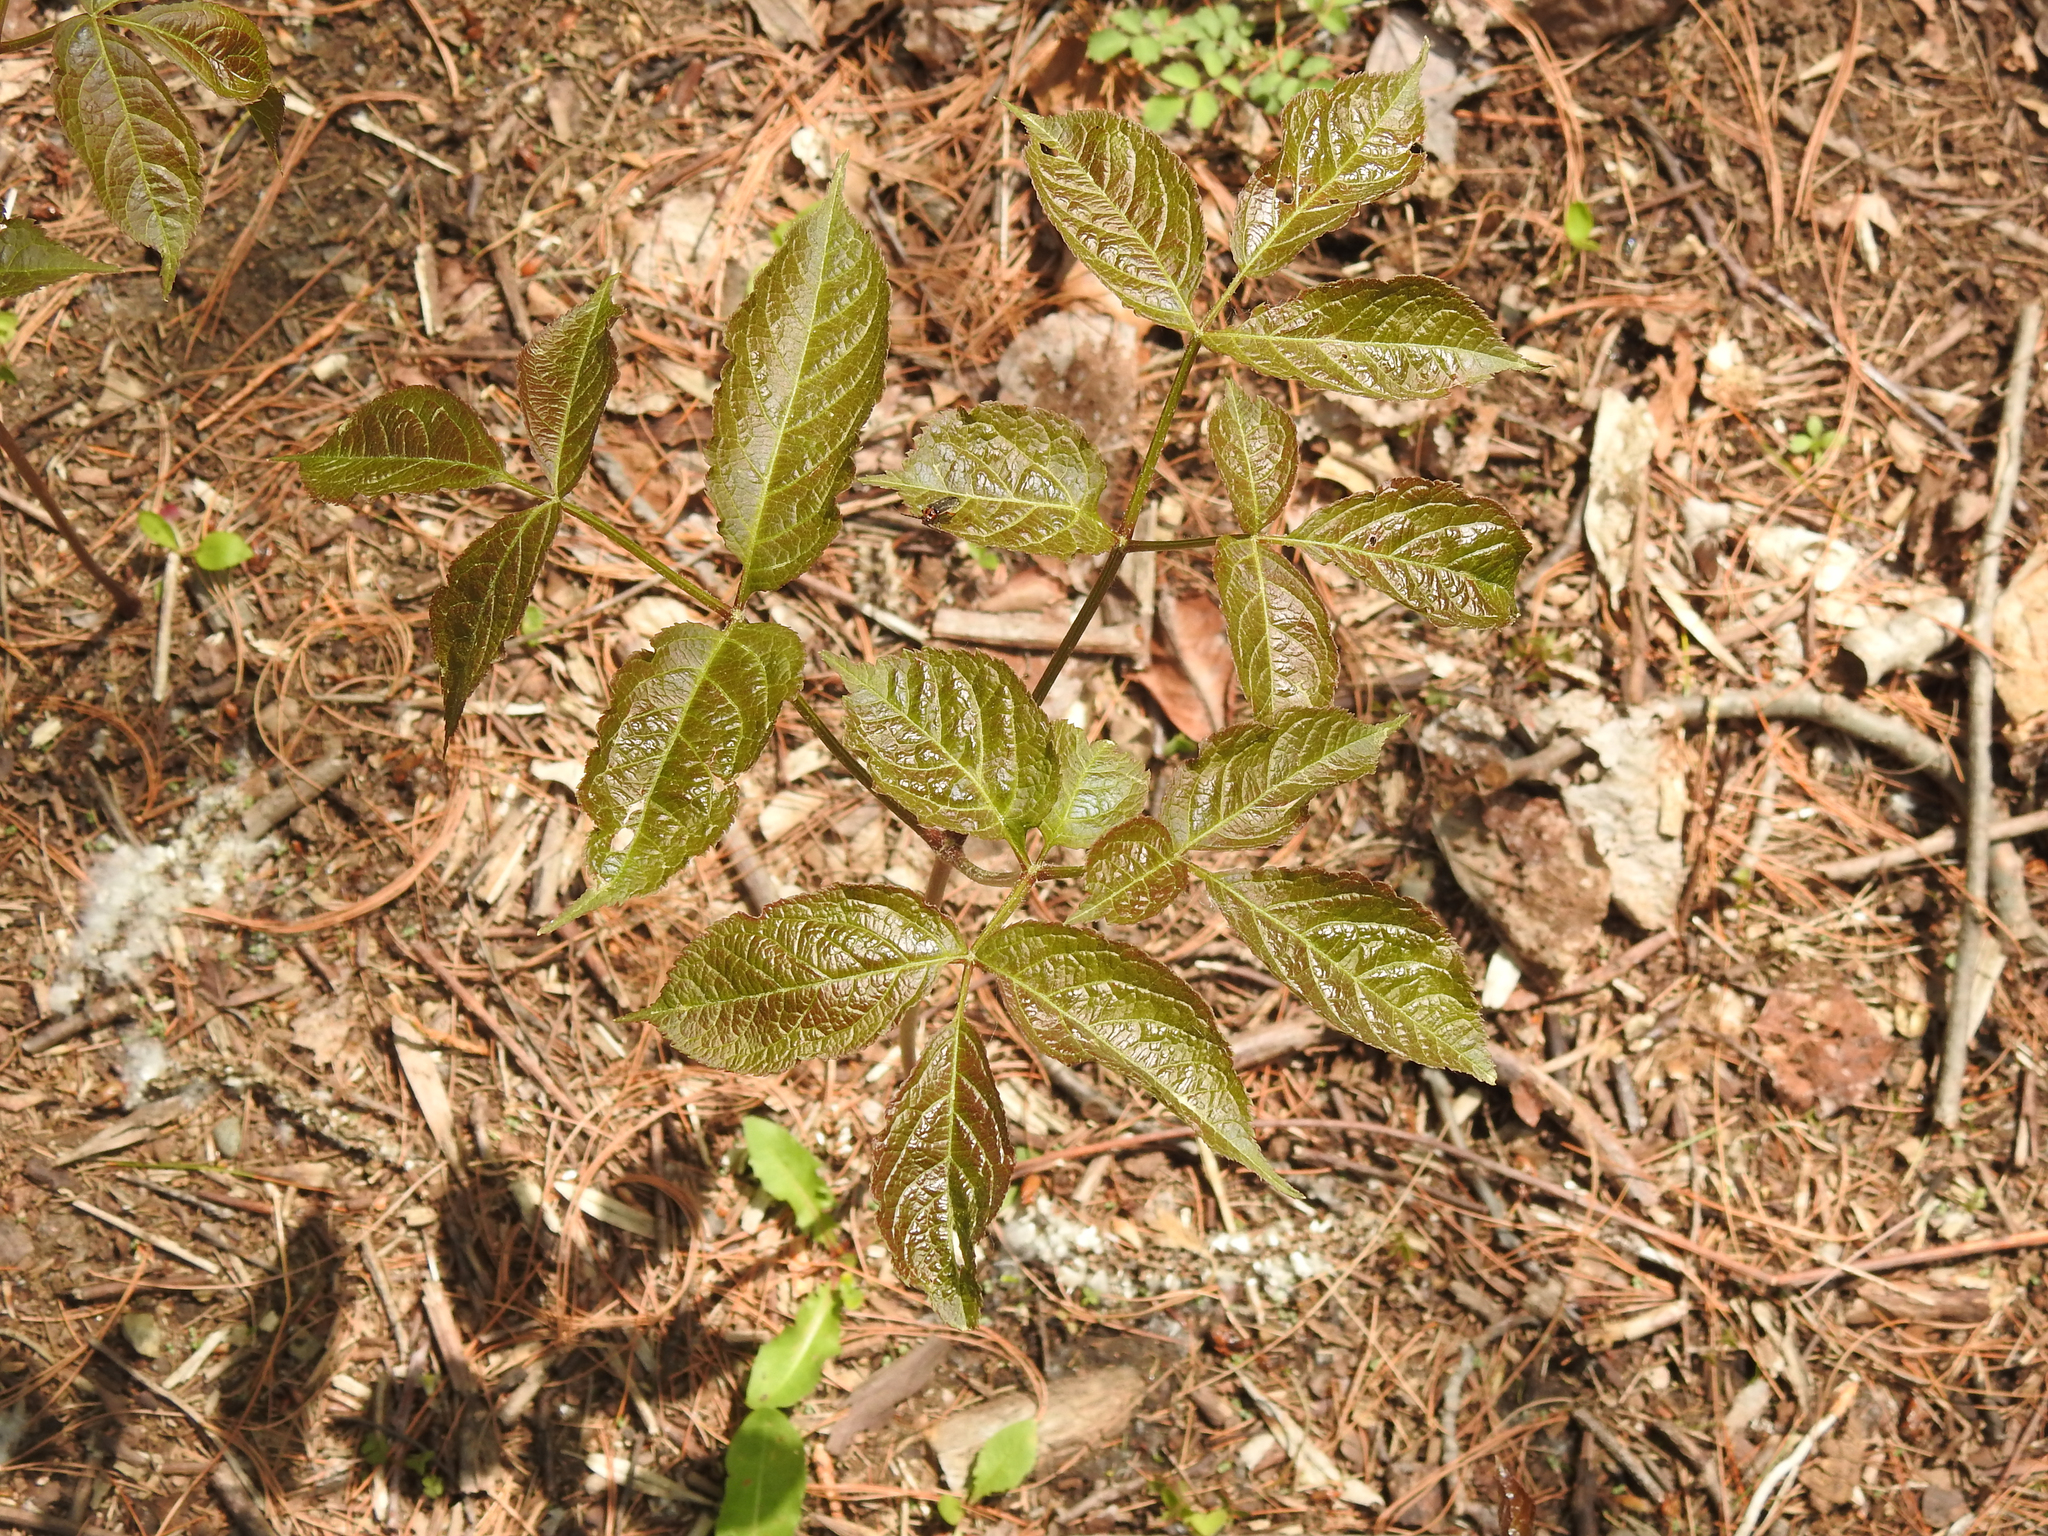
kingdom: Plantae
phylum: Tracheophyta
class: Magnoliopsida
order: Apiales
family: Araliaceae
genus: Aralia
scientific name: Aralia nudicaulis
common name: Wild sarsaparilla
